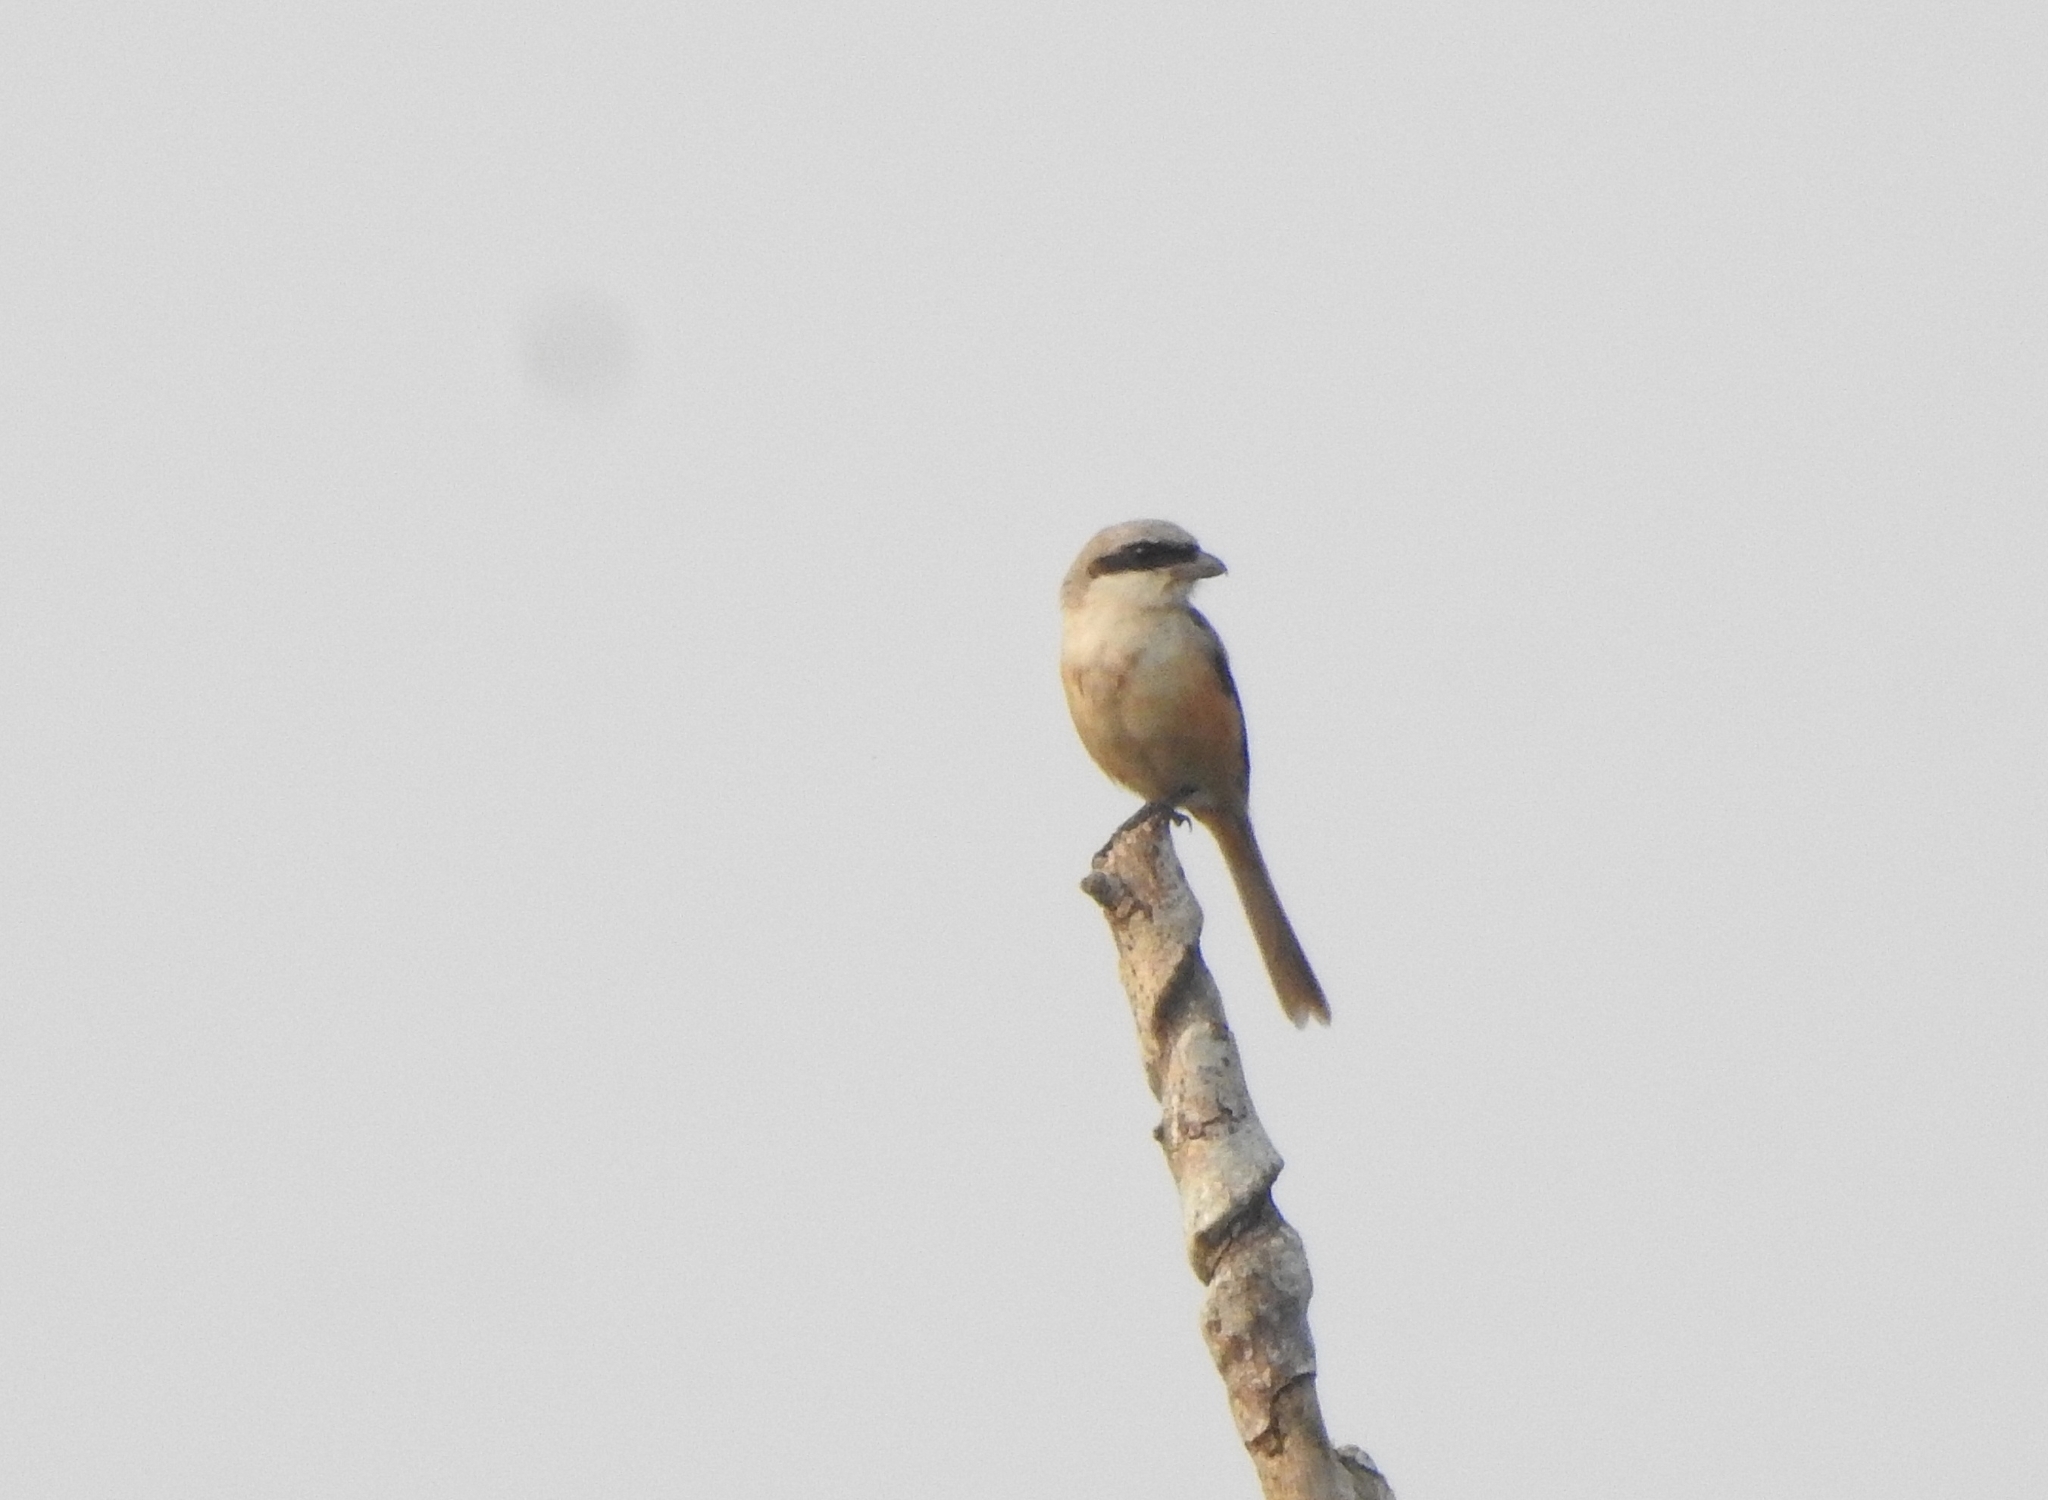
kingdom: Animalia
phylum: Chordata
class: Aves
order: Passeriformes
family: Laniidae
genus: Lanius
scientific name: Lanius schach
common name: Long-tailed shrike
